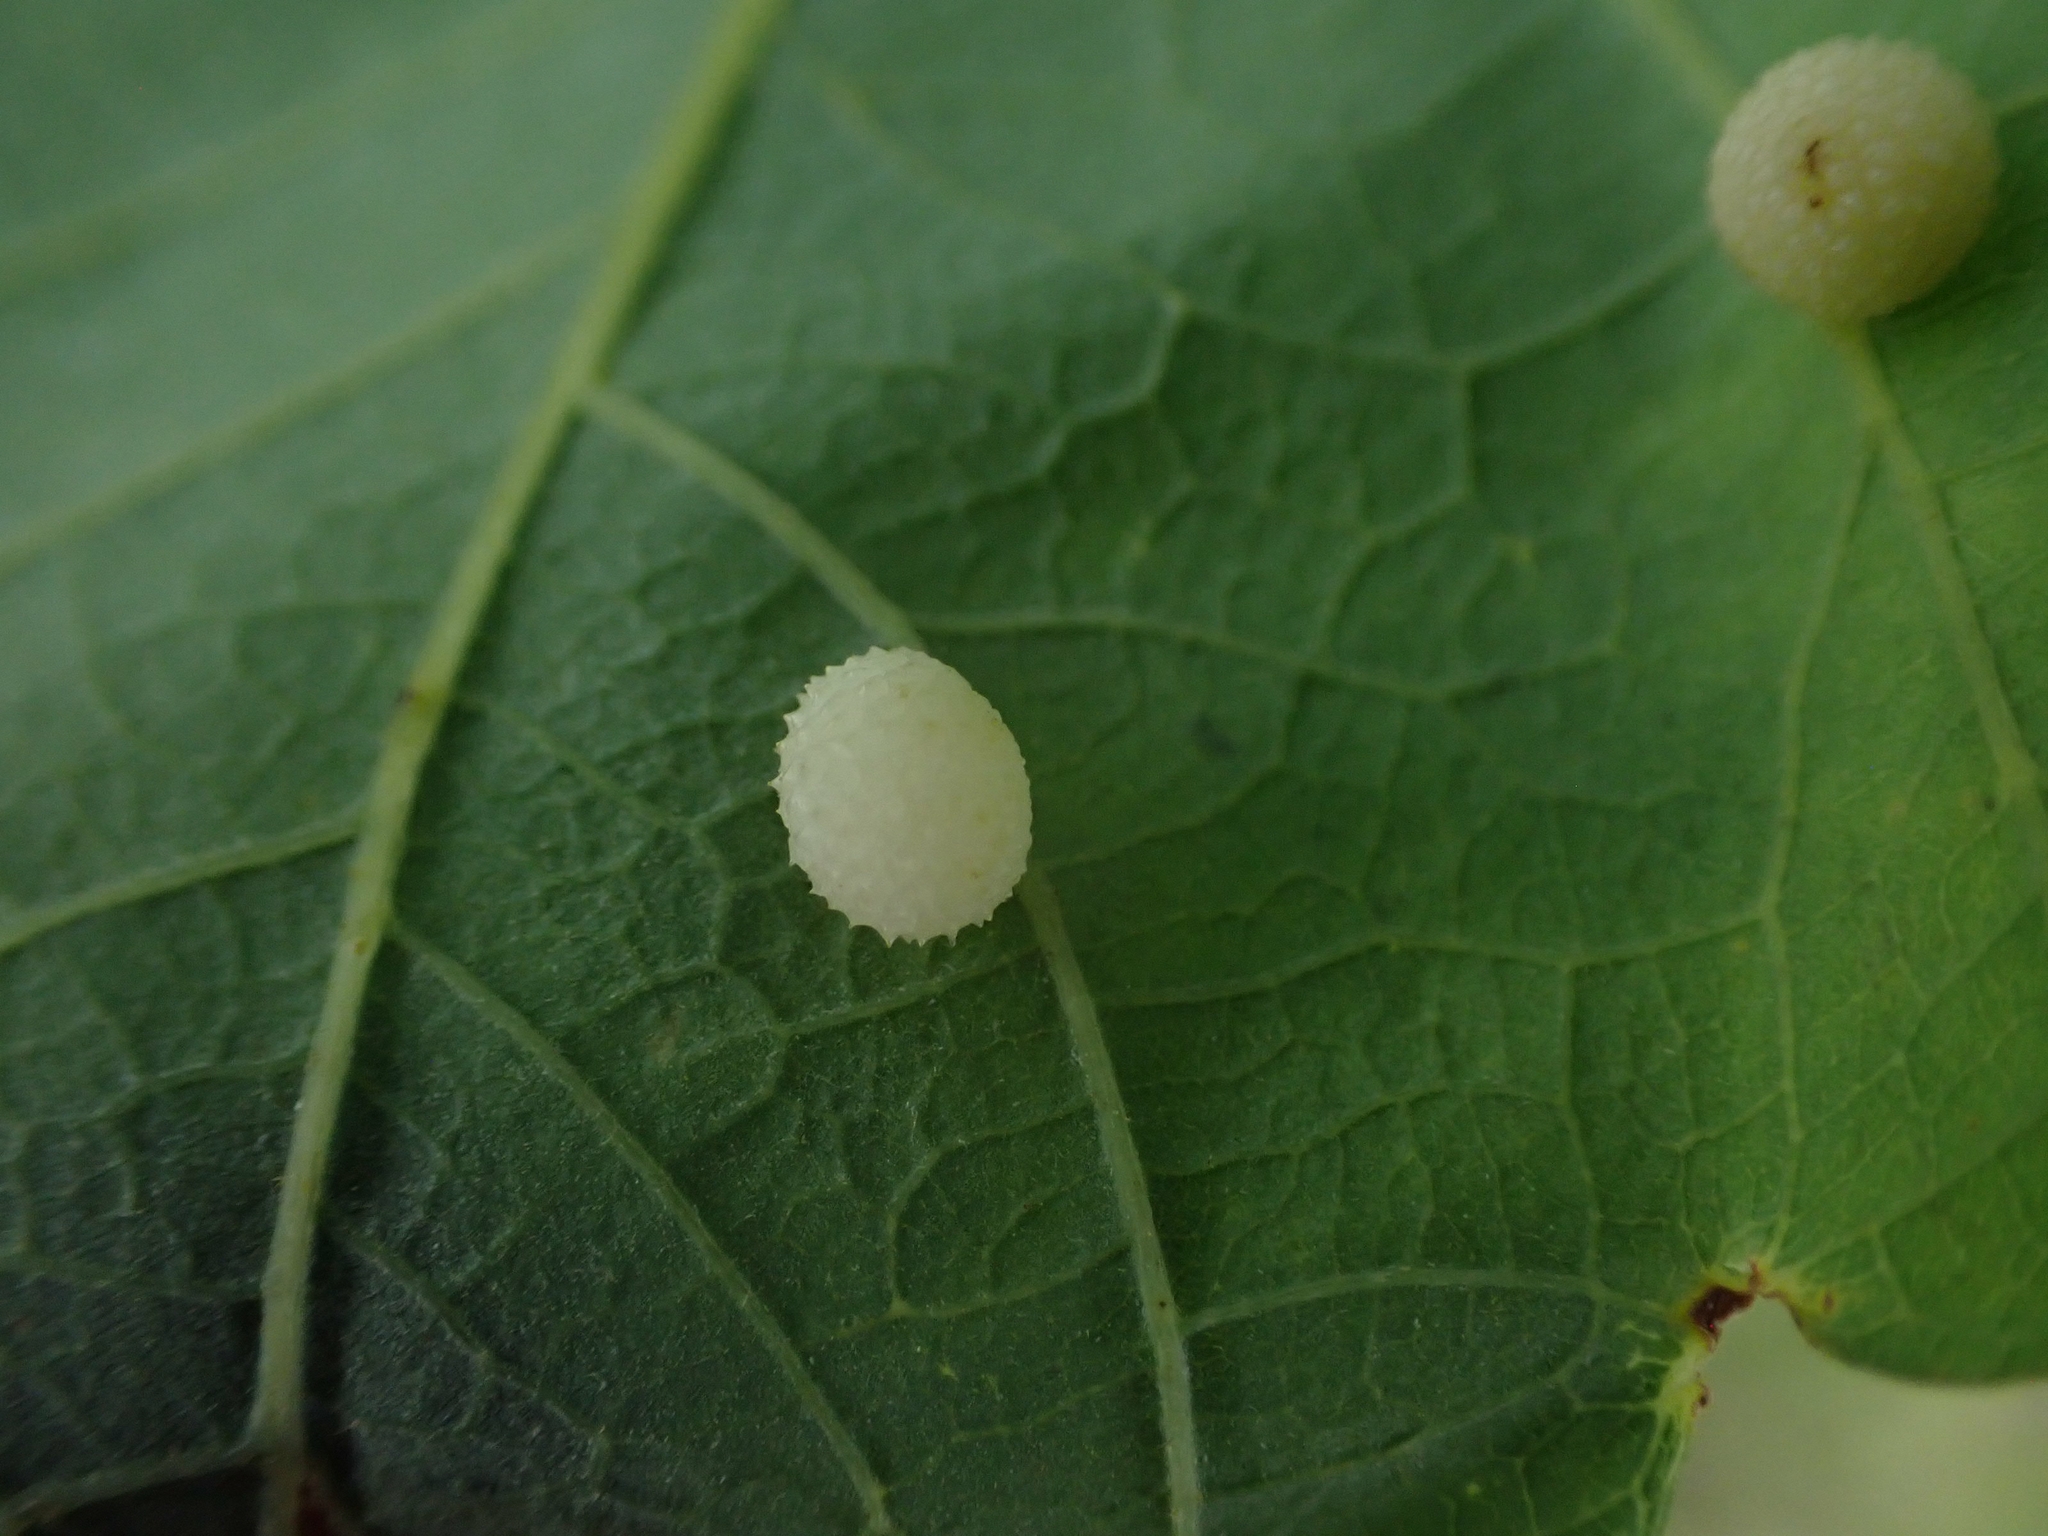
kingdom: Animalia
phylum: Arthropoda
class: Insecta
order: Hymenoptera
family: Cynipidae
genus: Acraspis
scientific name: Acraspis quercushirta
